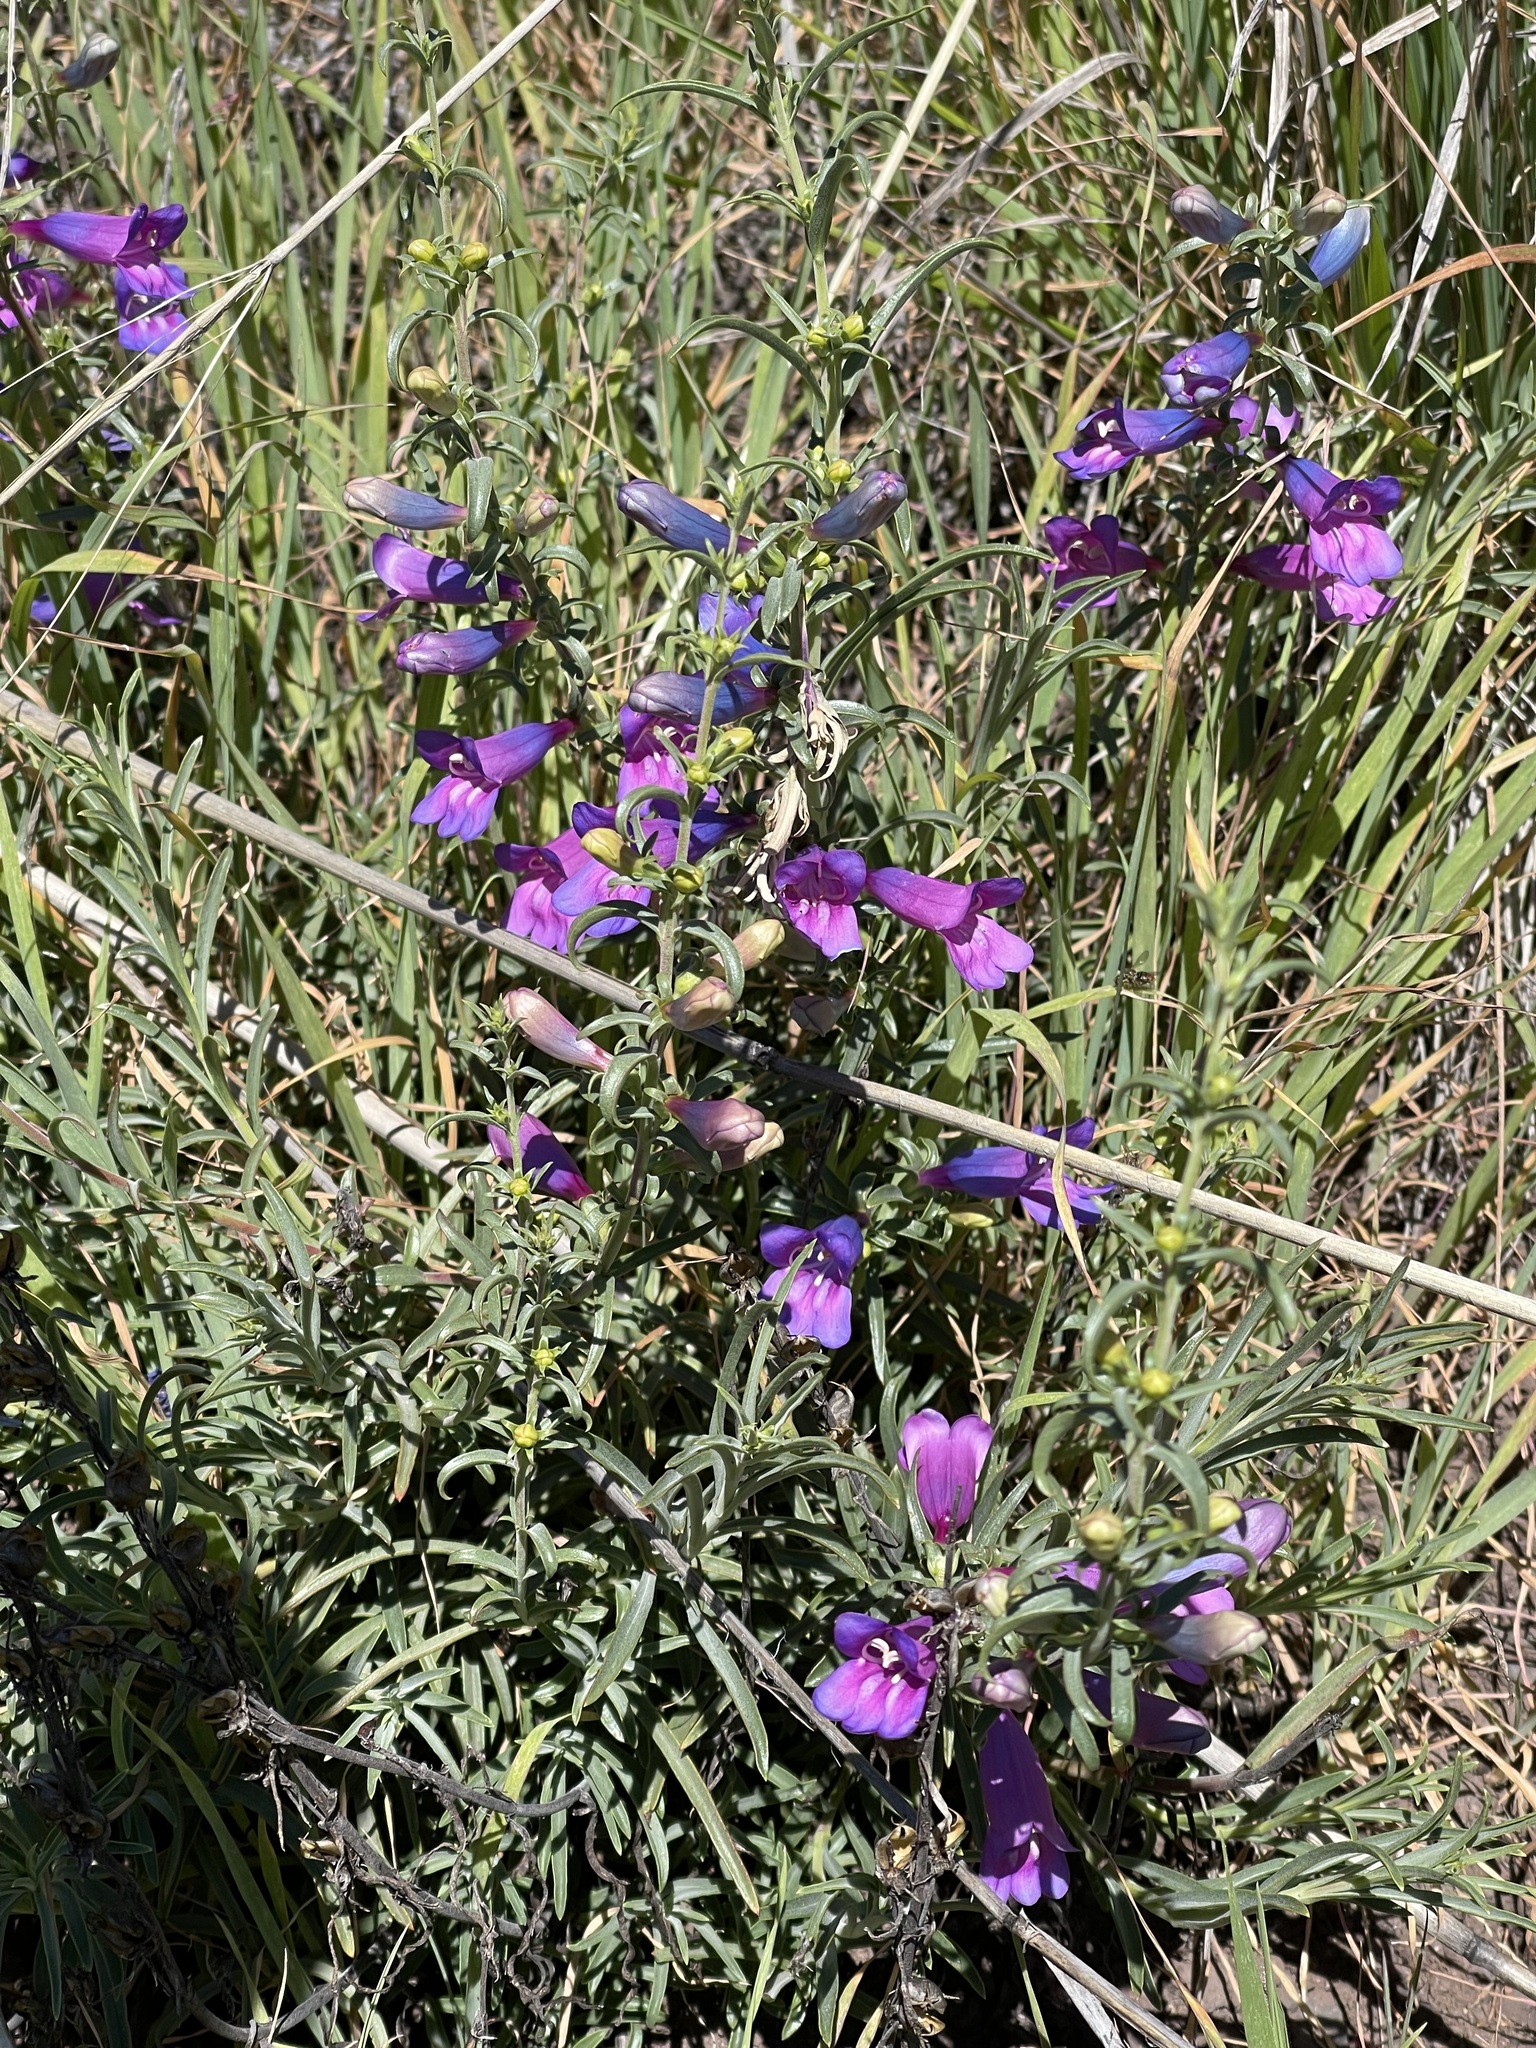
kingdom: Plantae
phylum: Tracheophyta
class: Magnoliopsida
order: Lamiales
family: Plantaginaceae
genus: Penstemon
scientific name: Penstemon heterophyllus
